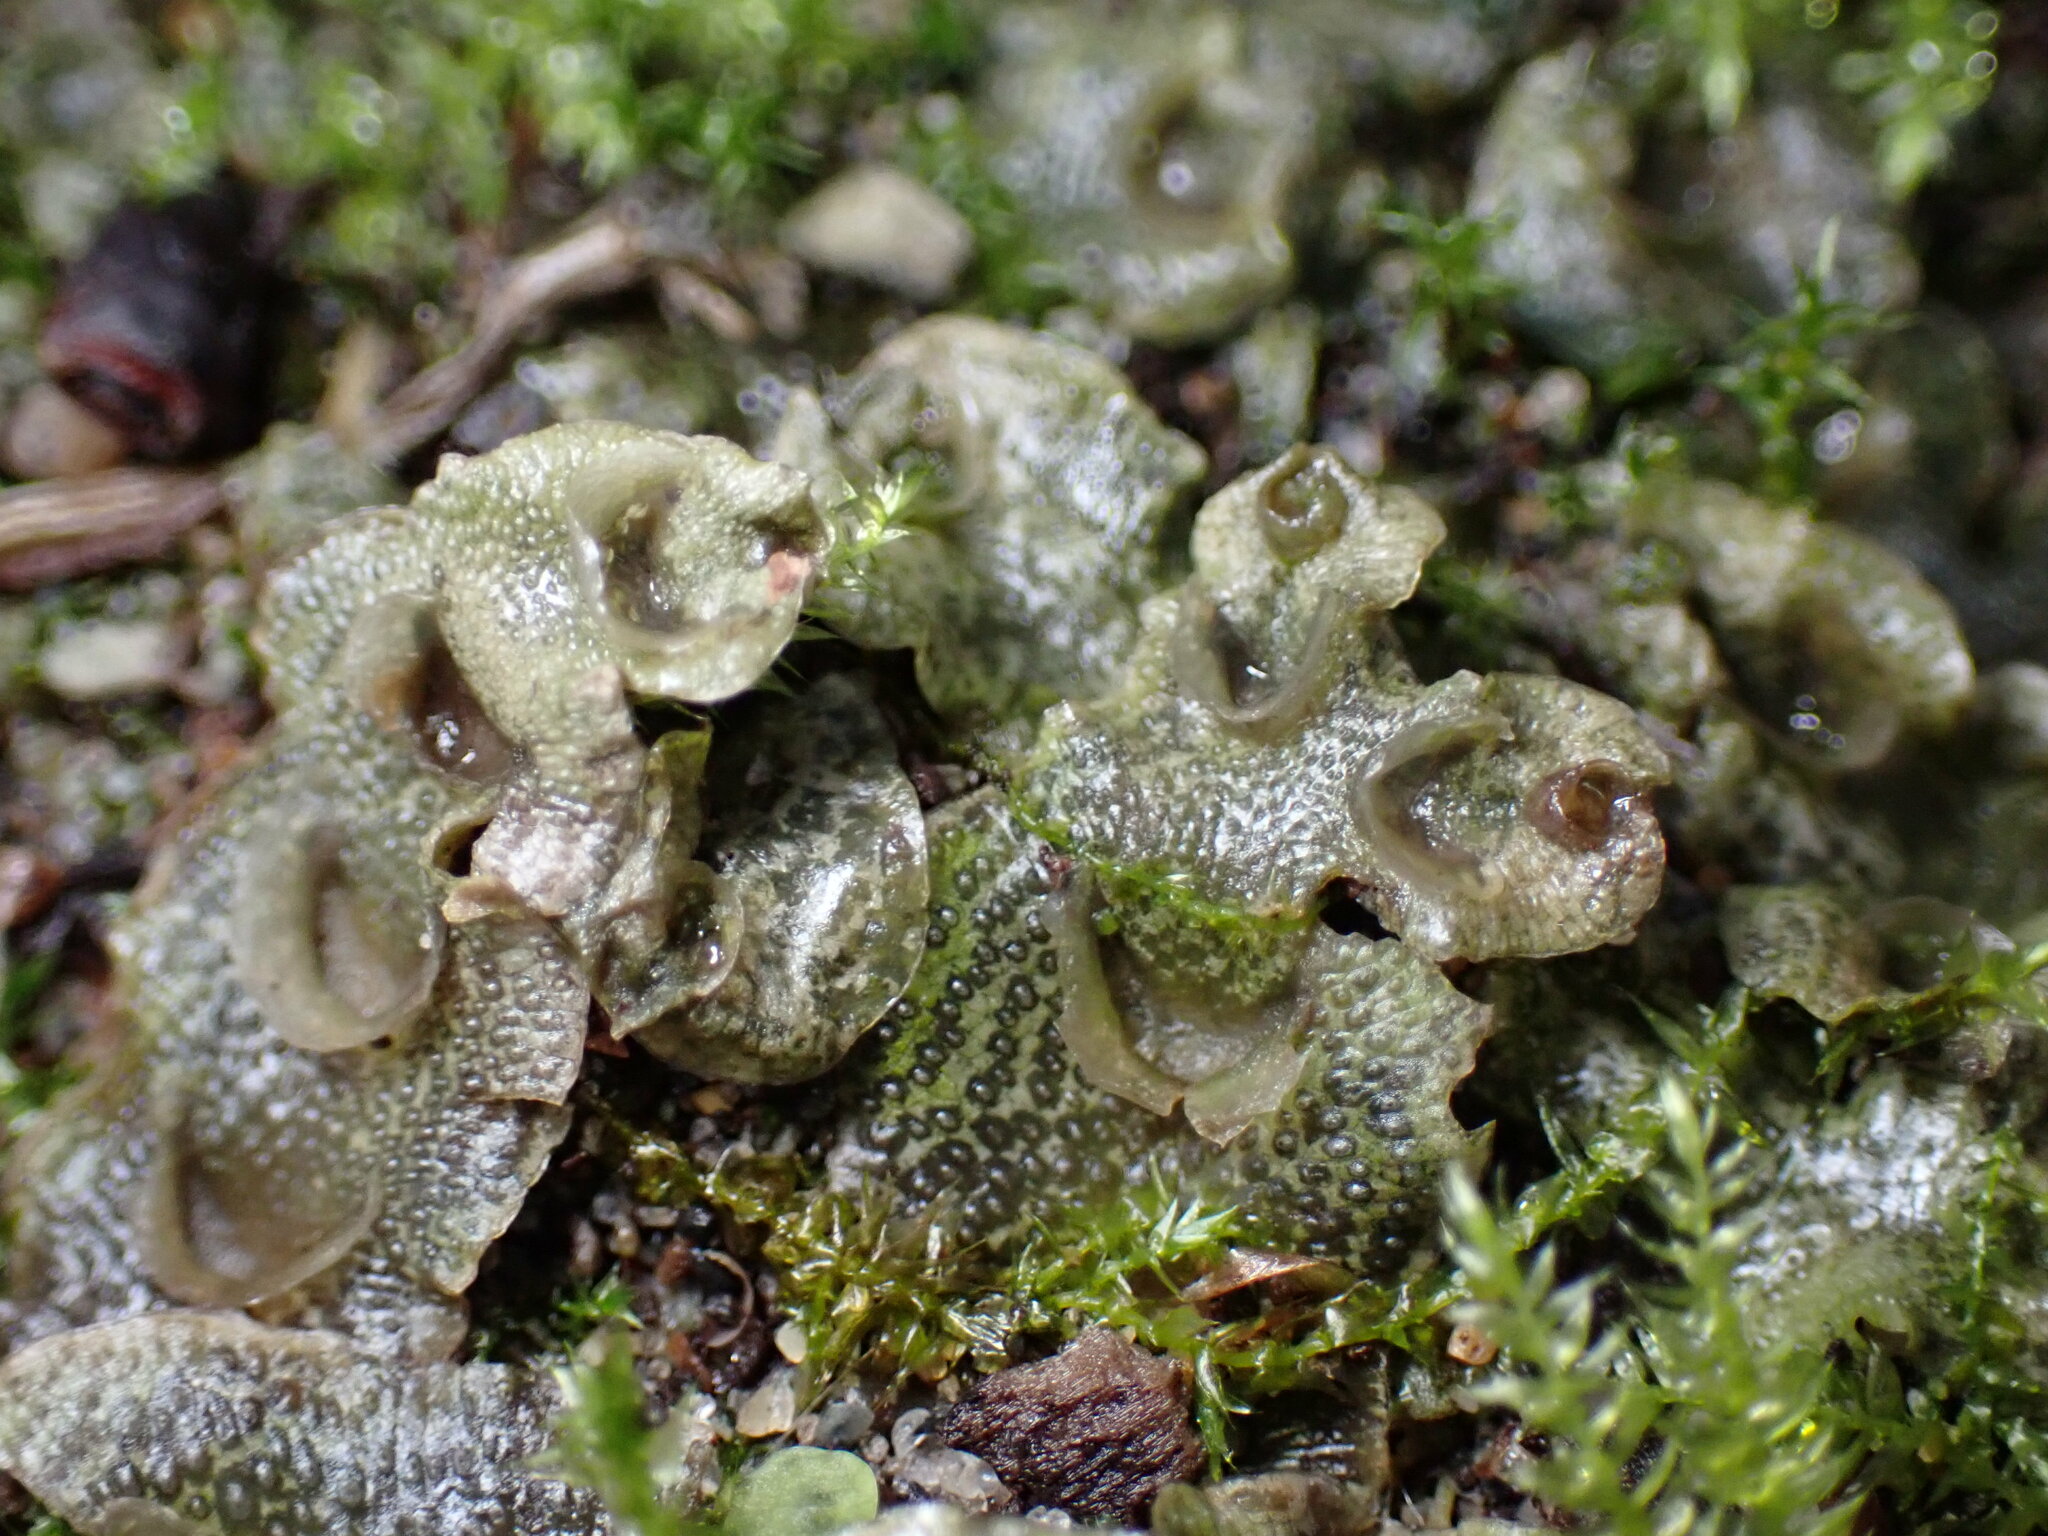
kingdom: Plantae
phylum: Marchantiophyta
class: Marchantiopsida
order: Lunulariales
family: Lunulariaceae
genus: Lunularia
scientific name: Lunularia cruciata
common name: Crescent-cup liverwort
